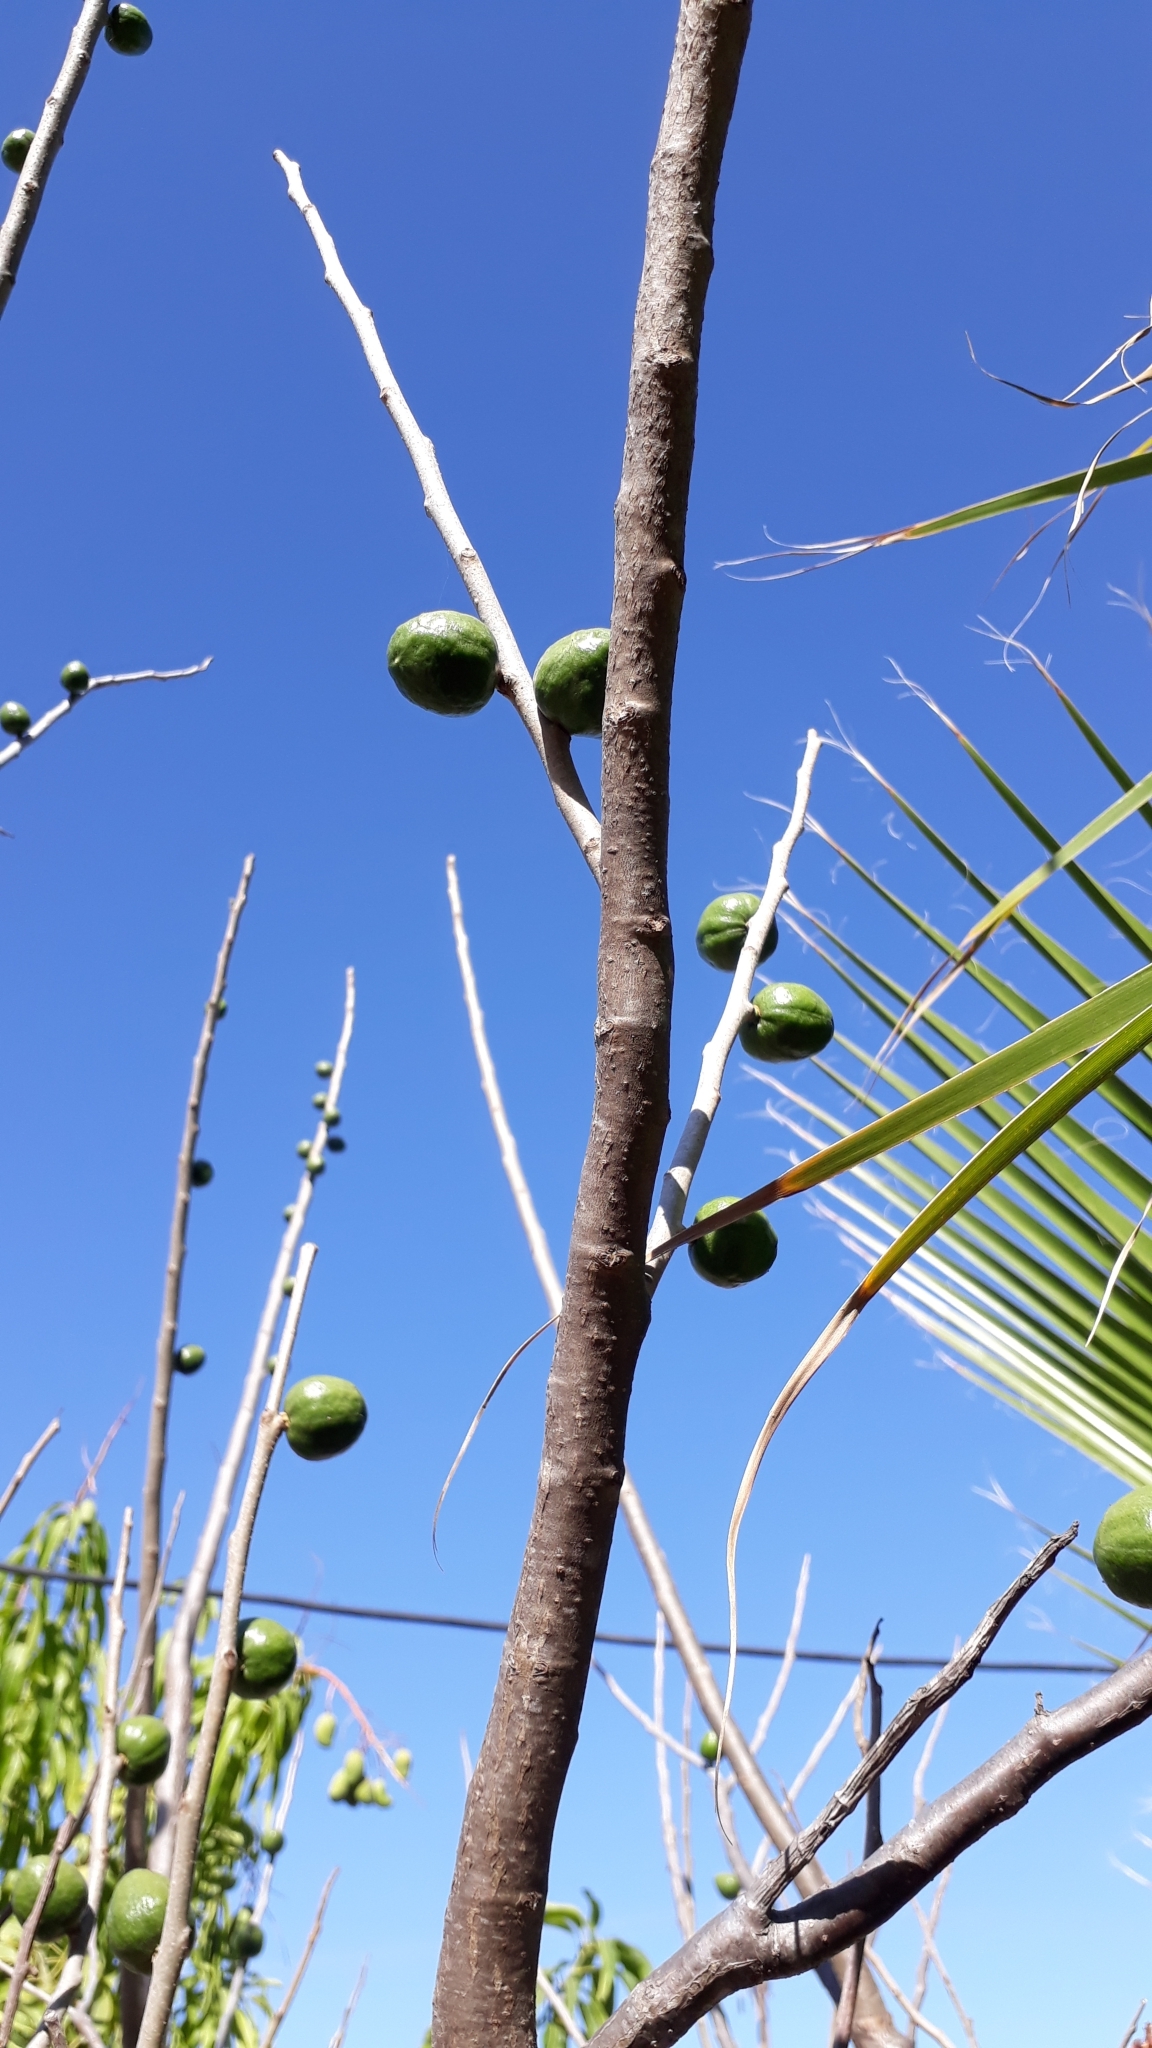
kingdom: Plantae
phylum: Tracheophyta
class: Magnoliopsida
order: Sapindales
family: Anacardiaceae
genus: Spondias
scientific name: Spondias purpurea
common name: Purple mombin
